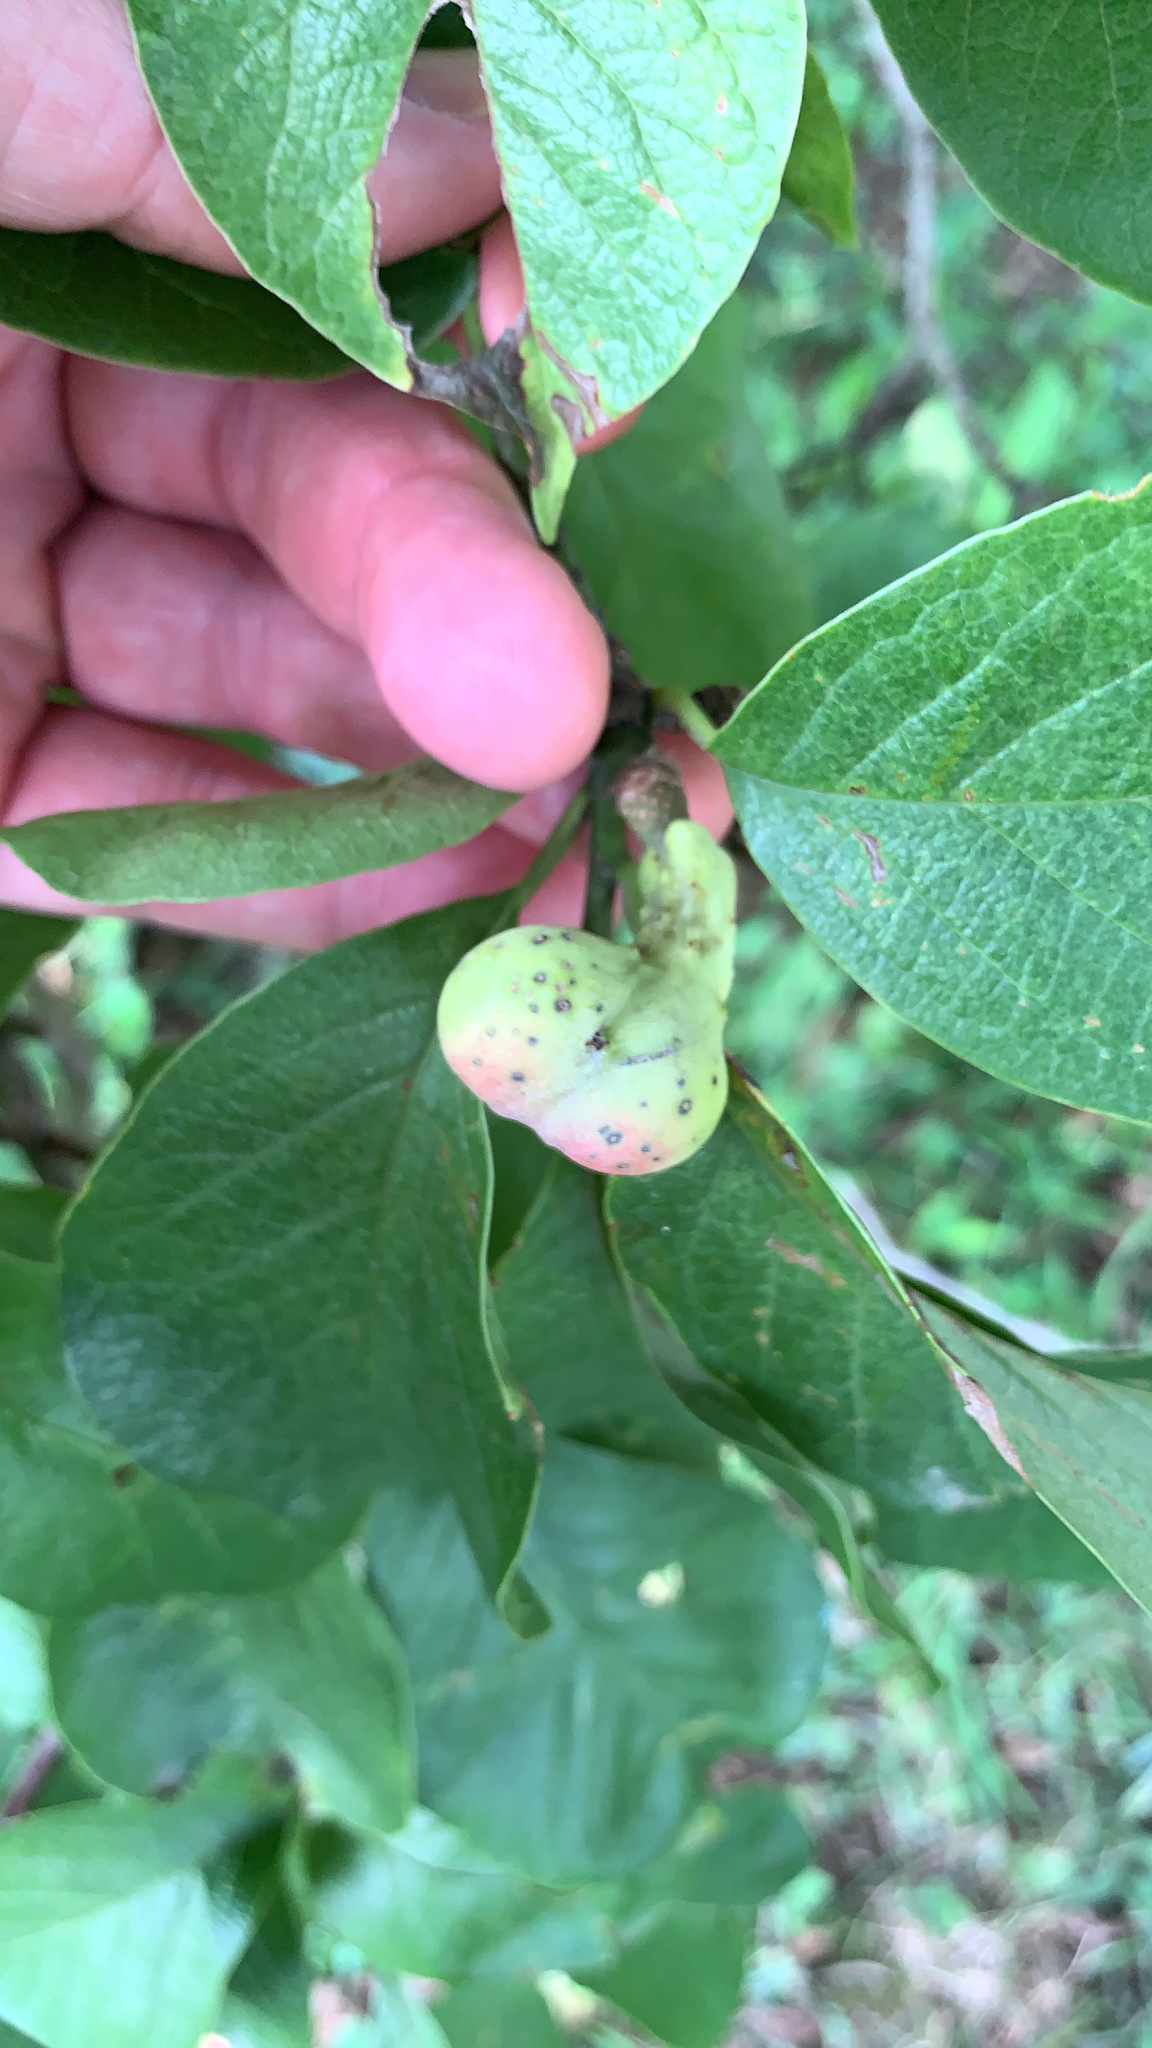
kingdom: Plantae
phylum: Tracheophyta
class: Magnoliopsida
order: Magnoliales
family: Magnoliaceae
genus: Magnolia
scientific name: Magnolia acuminata
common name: Cucumber magnolia
